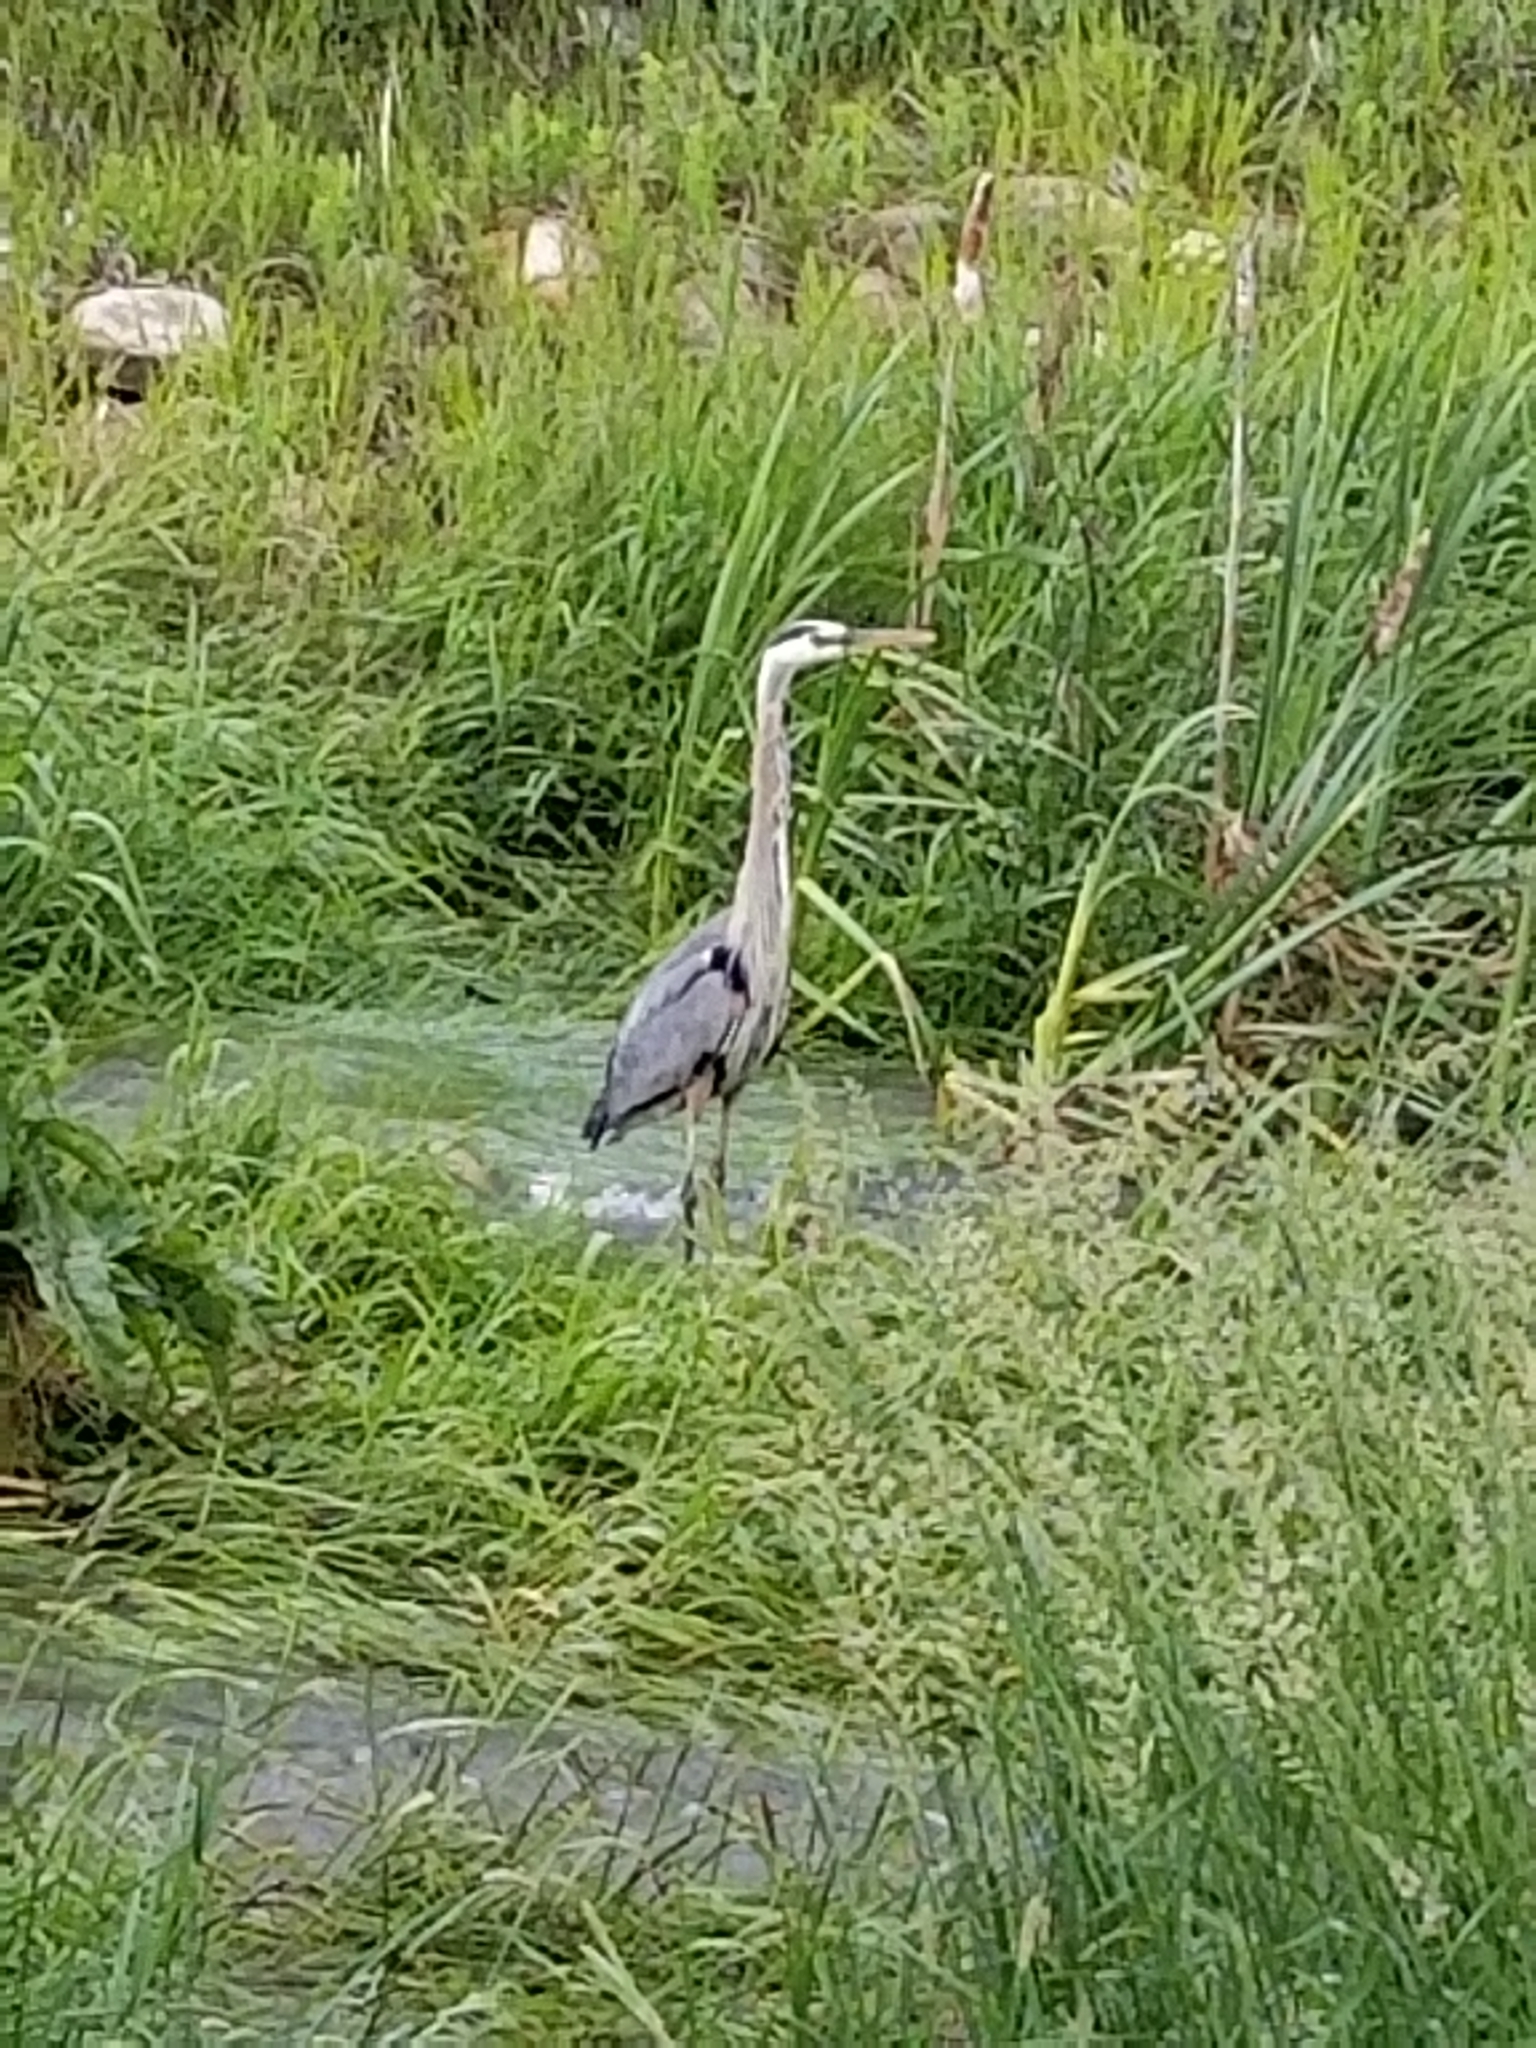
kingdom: Animalia
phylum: Chordata
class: Aves
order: Pelecaniformes
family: Ardeidae
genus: Ardea
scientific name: Ardea herodias
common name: Great blue heron
